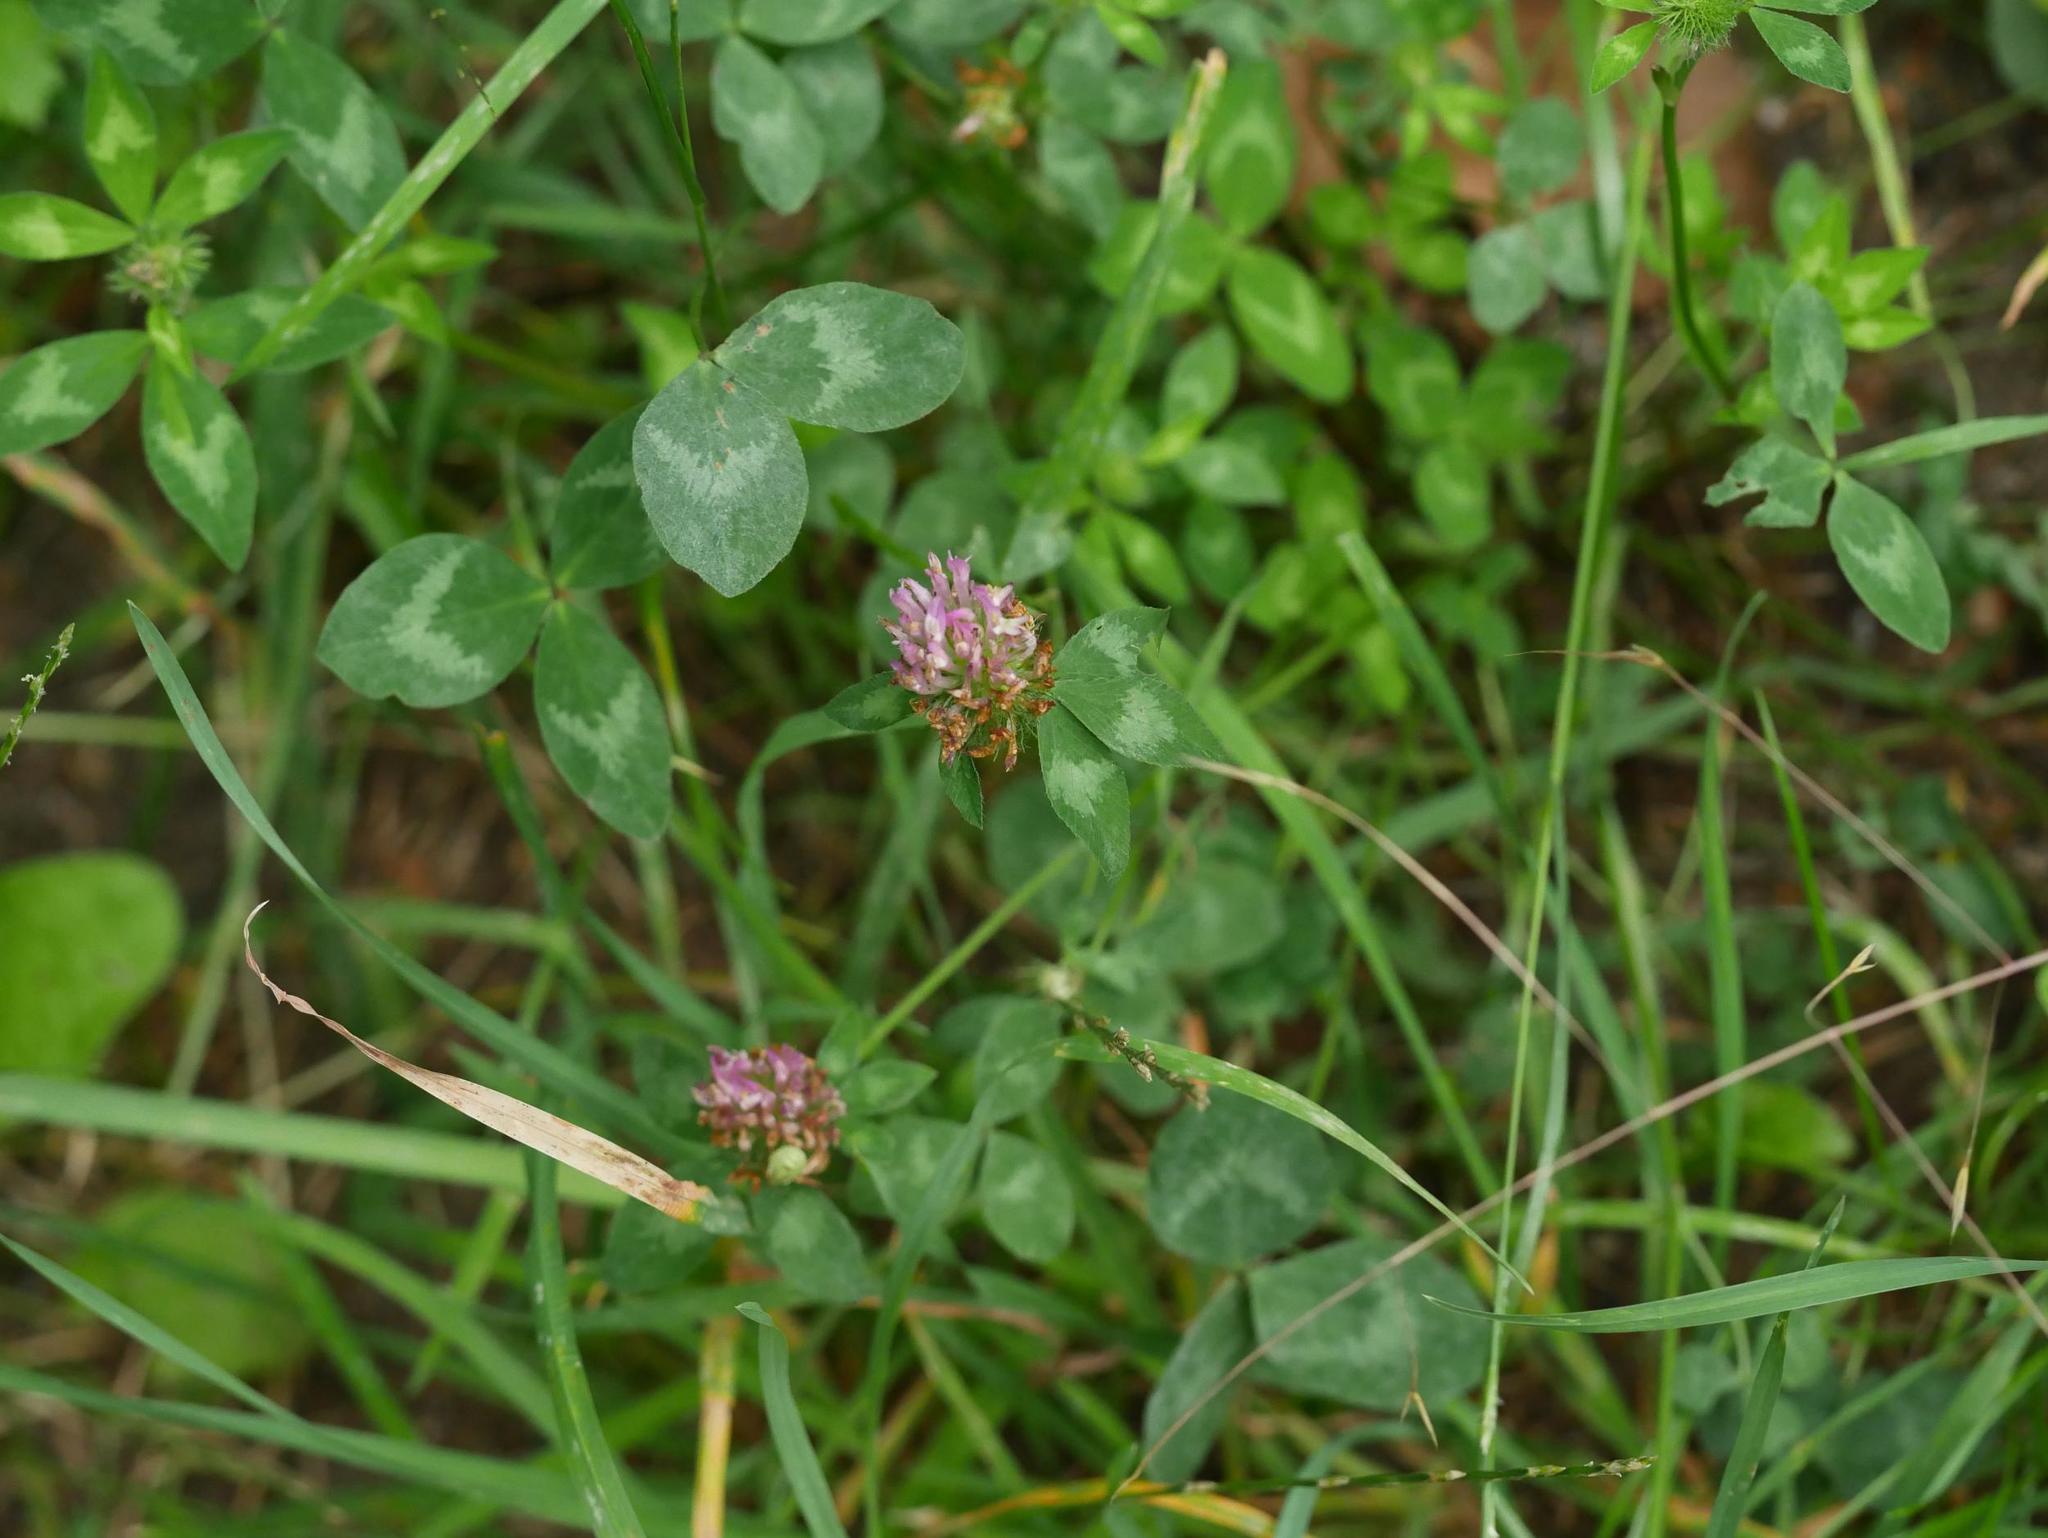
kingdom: Plantae
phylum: Tracheophyta
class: Magnoliopsida
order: Fabales
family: Fabaceae
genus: Trifolium
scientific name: Trifolium pratense
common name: Red clover
